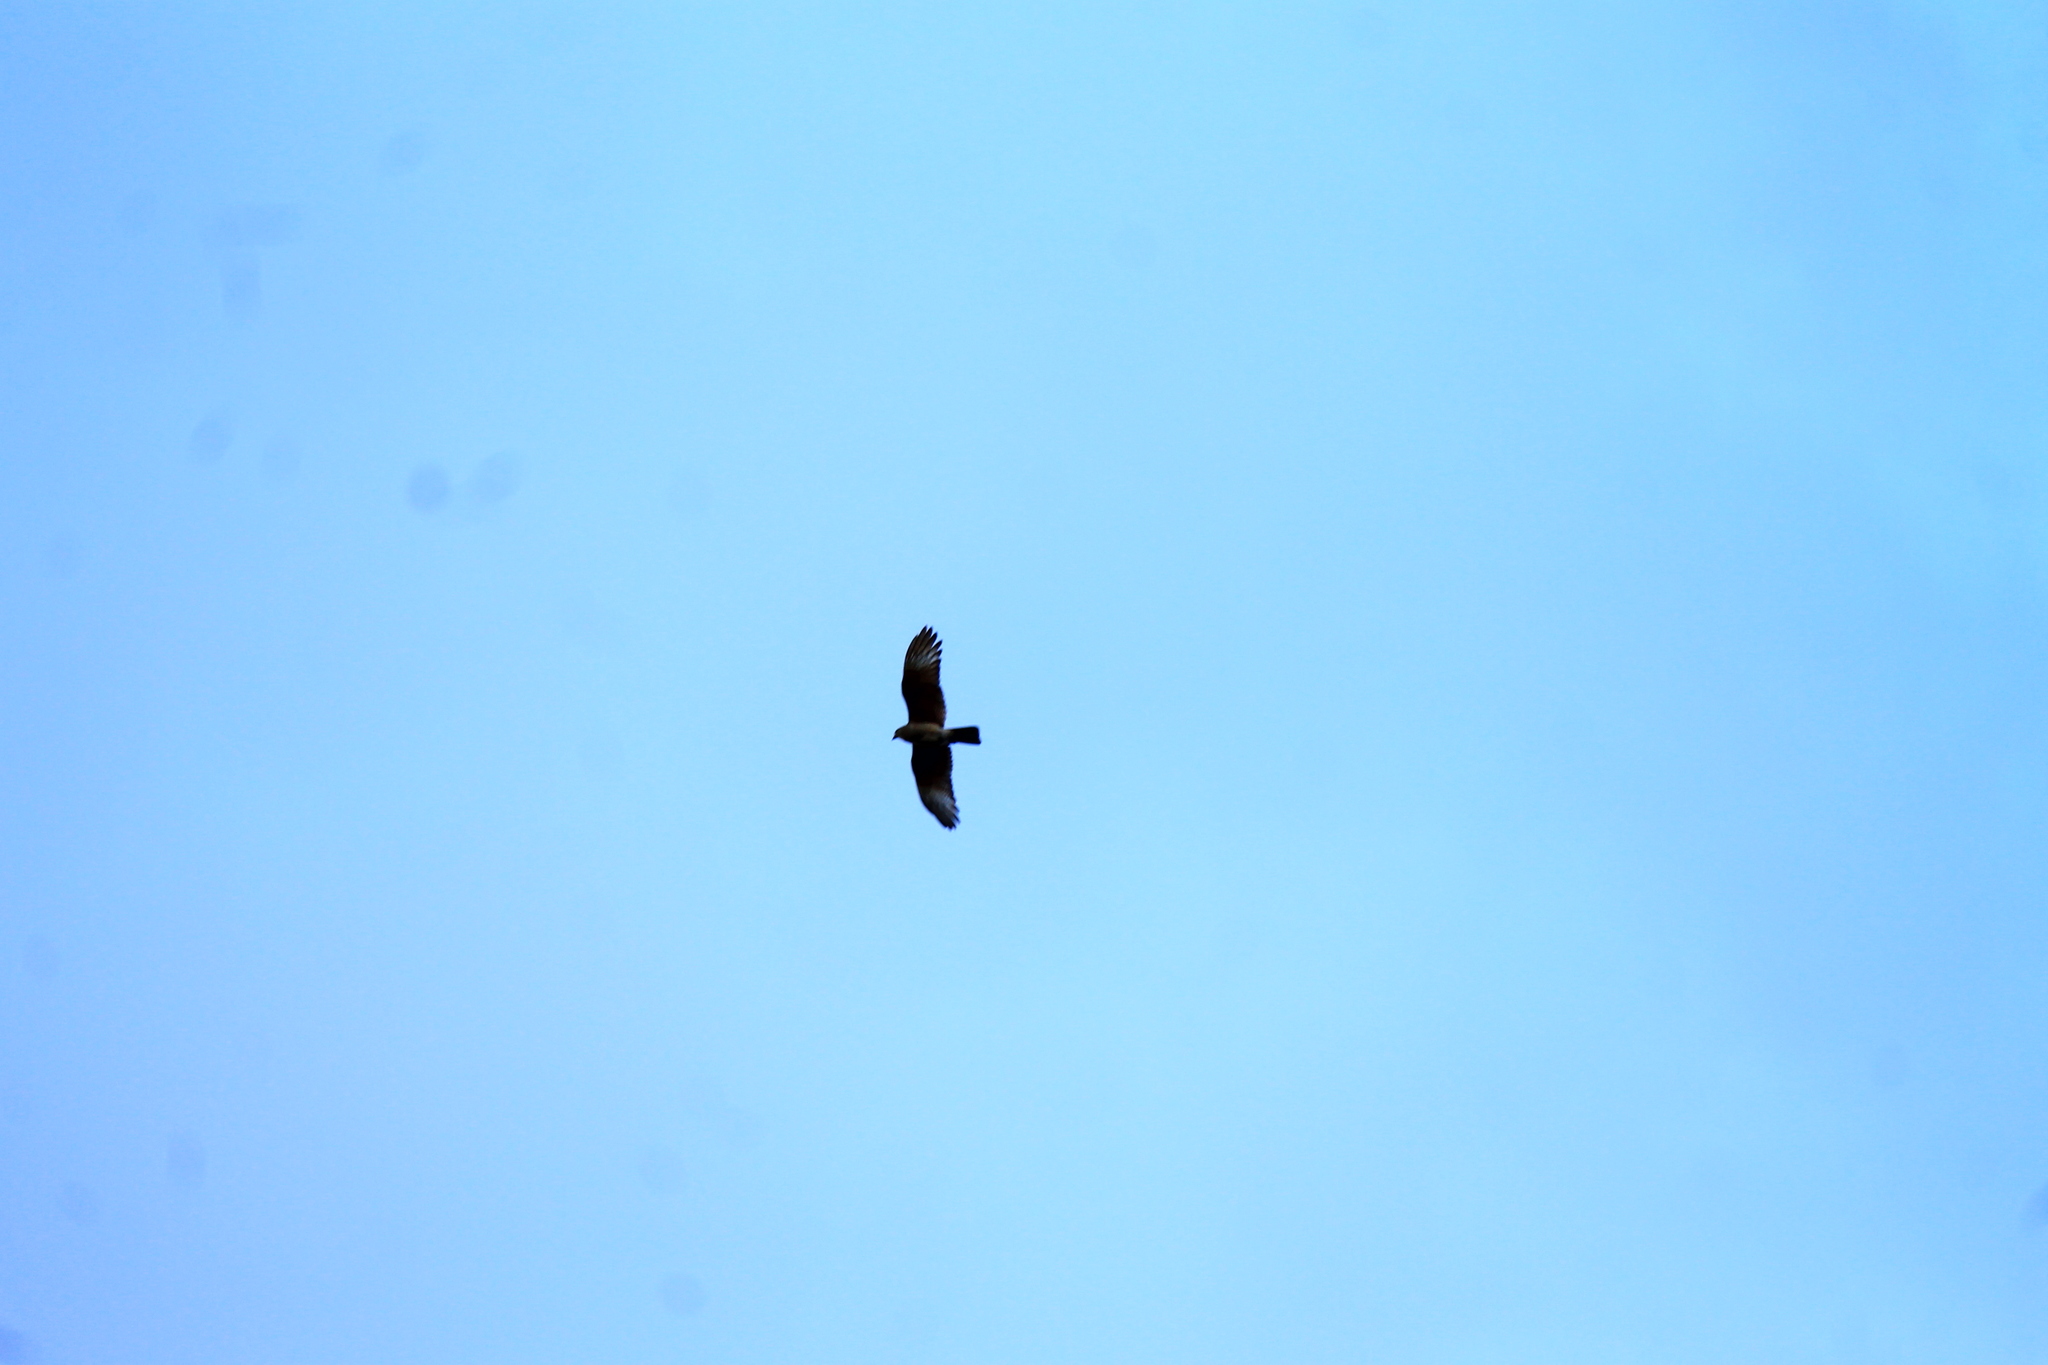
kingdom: Animalia
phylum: Chordata
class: Aves
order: Accipitriformes
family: Accipitridae
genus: Parabuteo
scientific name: Parabuteo unicinctus
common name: Harris's hawk
